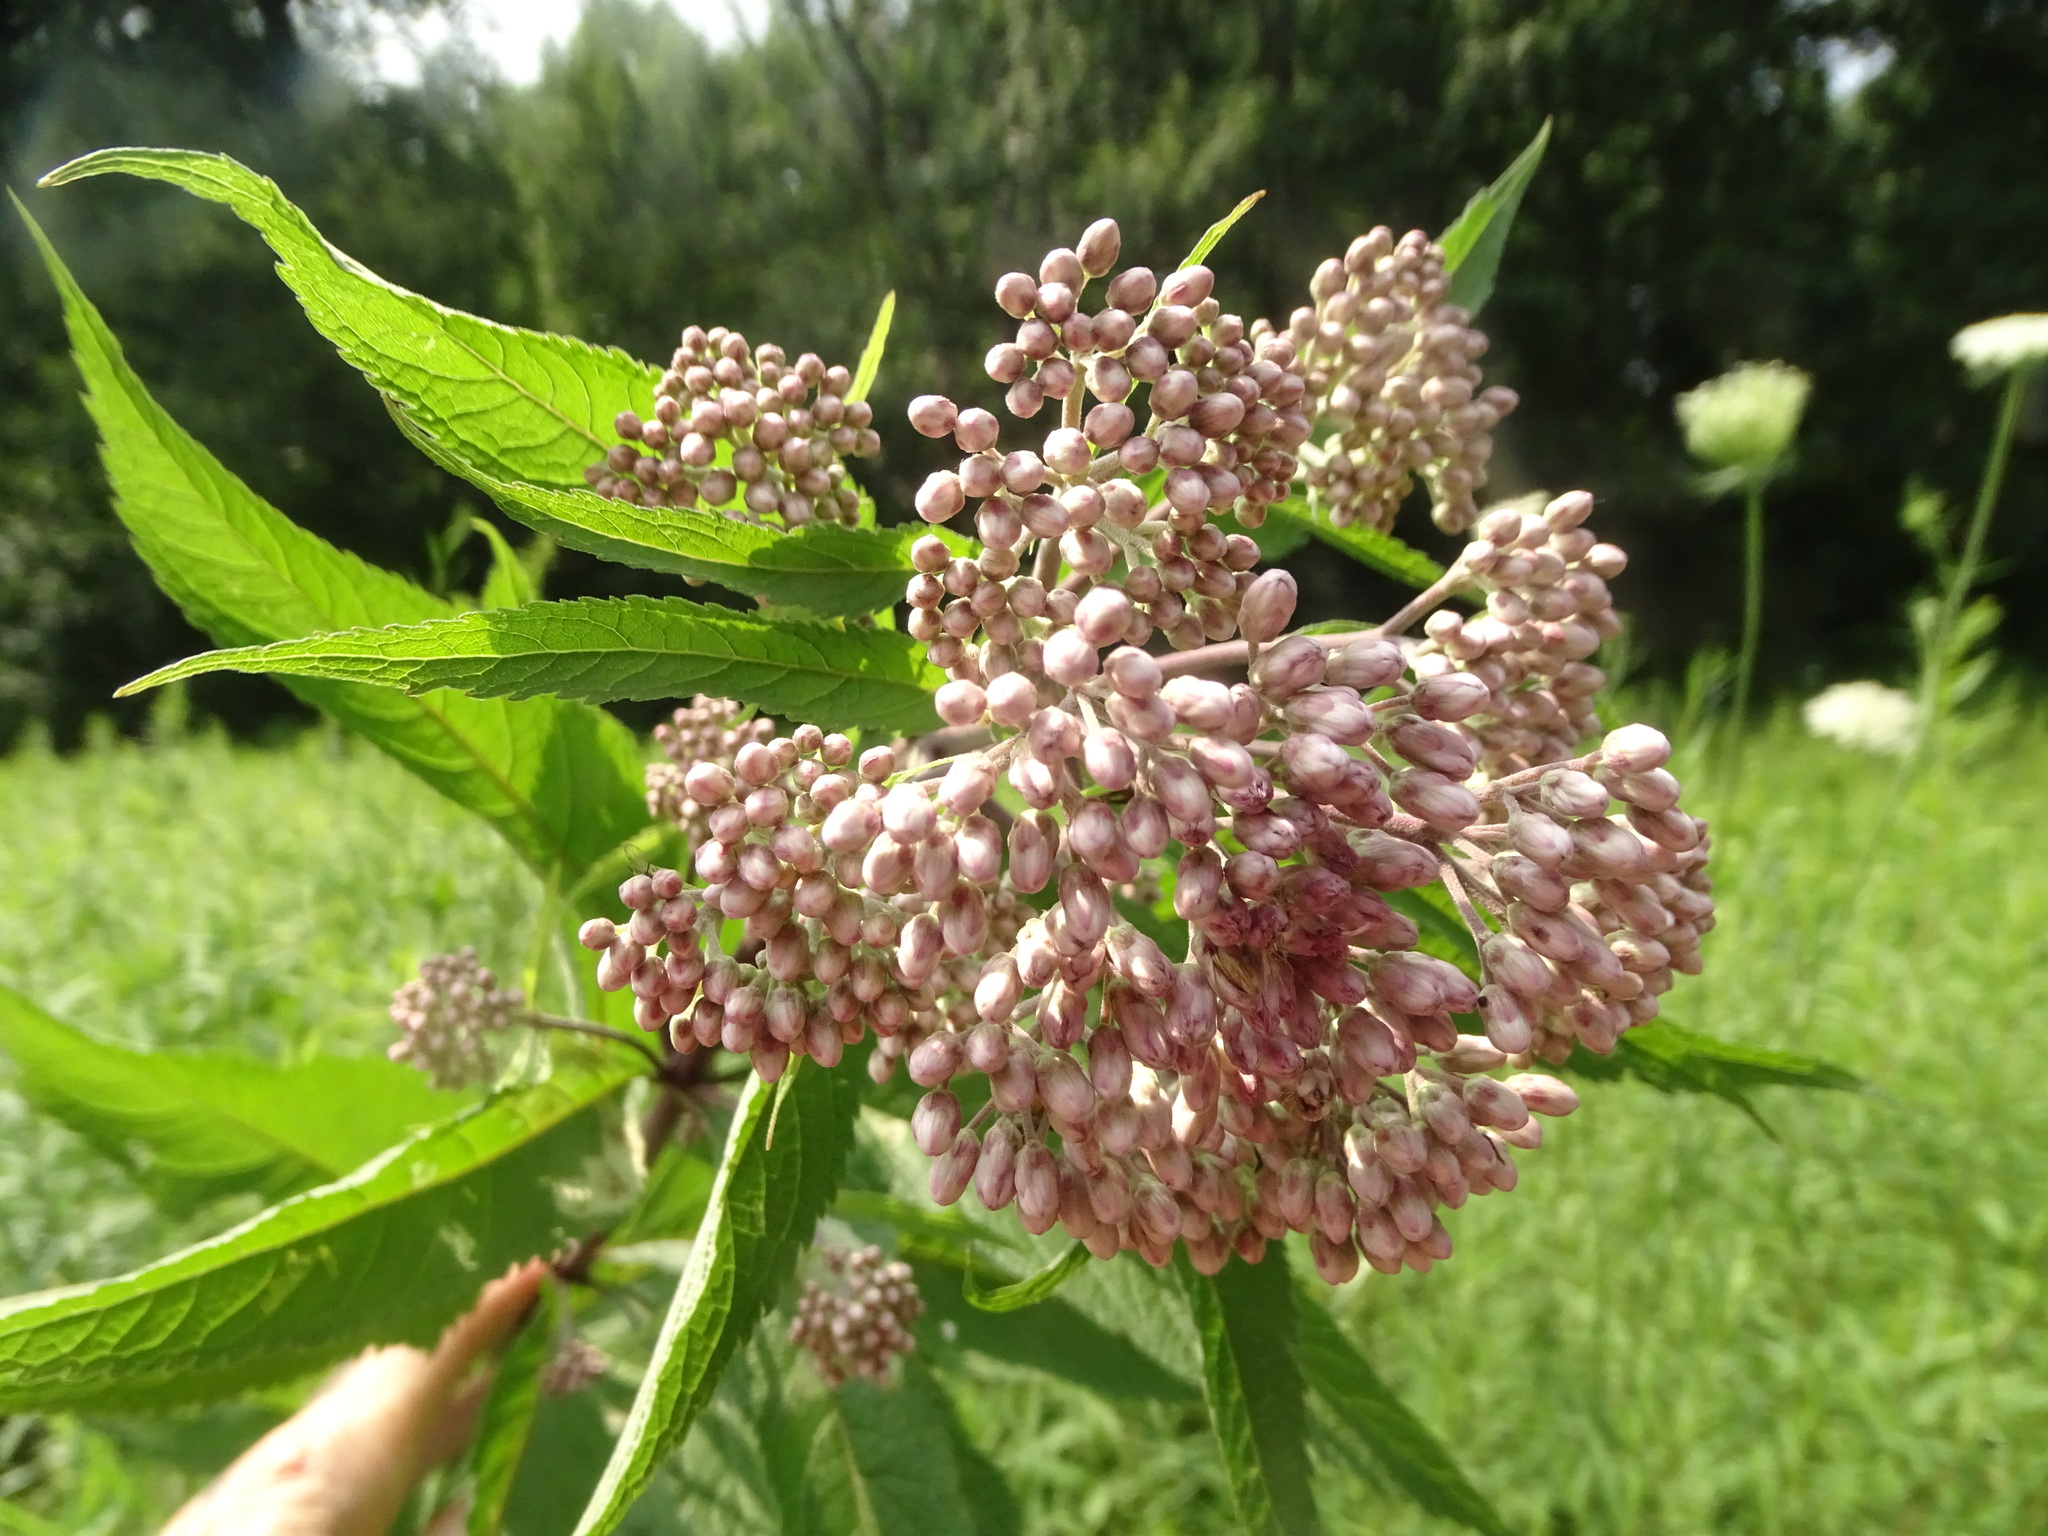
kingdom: Plantae
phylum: Tracheophyta
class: Magnoliopsida
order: Asterales
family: Asteraceae
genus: Eutrochium
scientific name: Eutrochium maculatum
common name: Spotted joe pye weed
